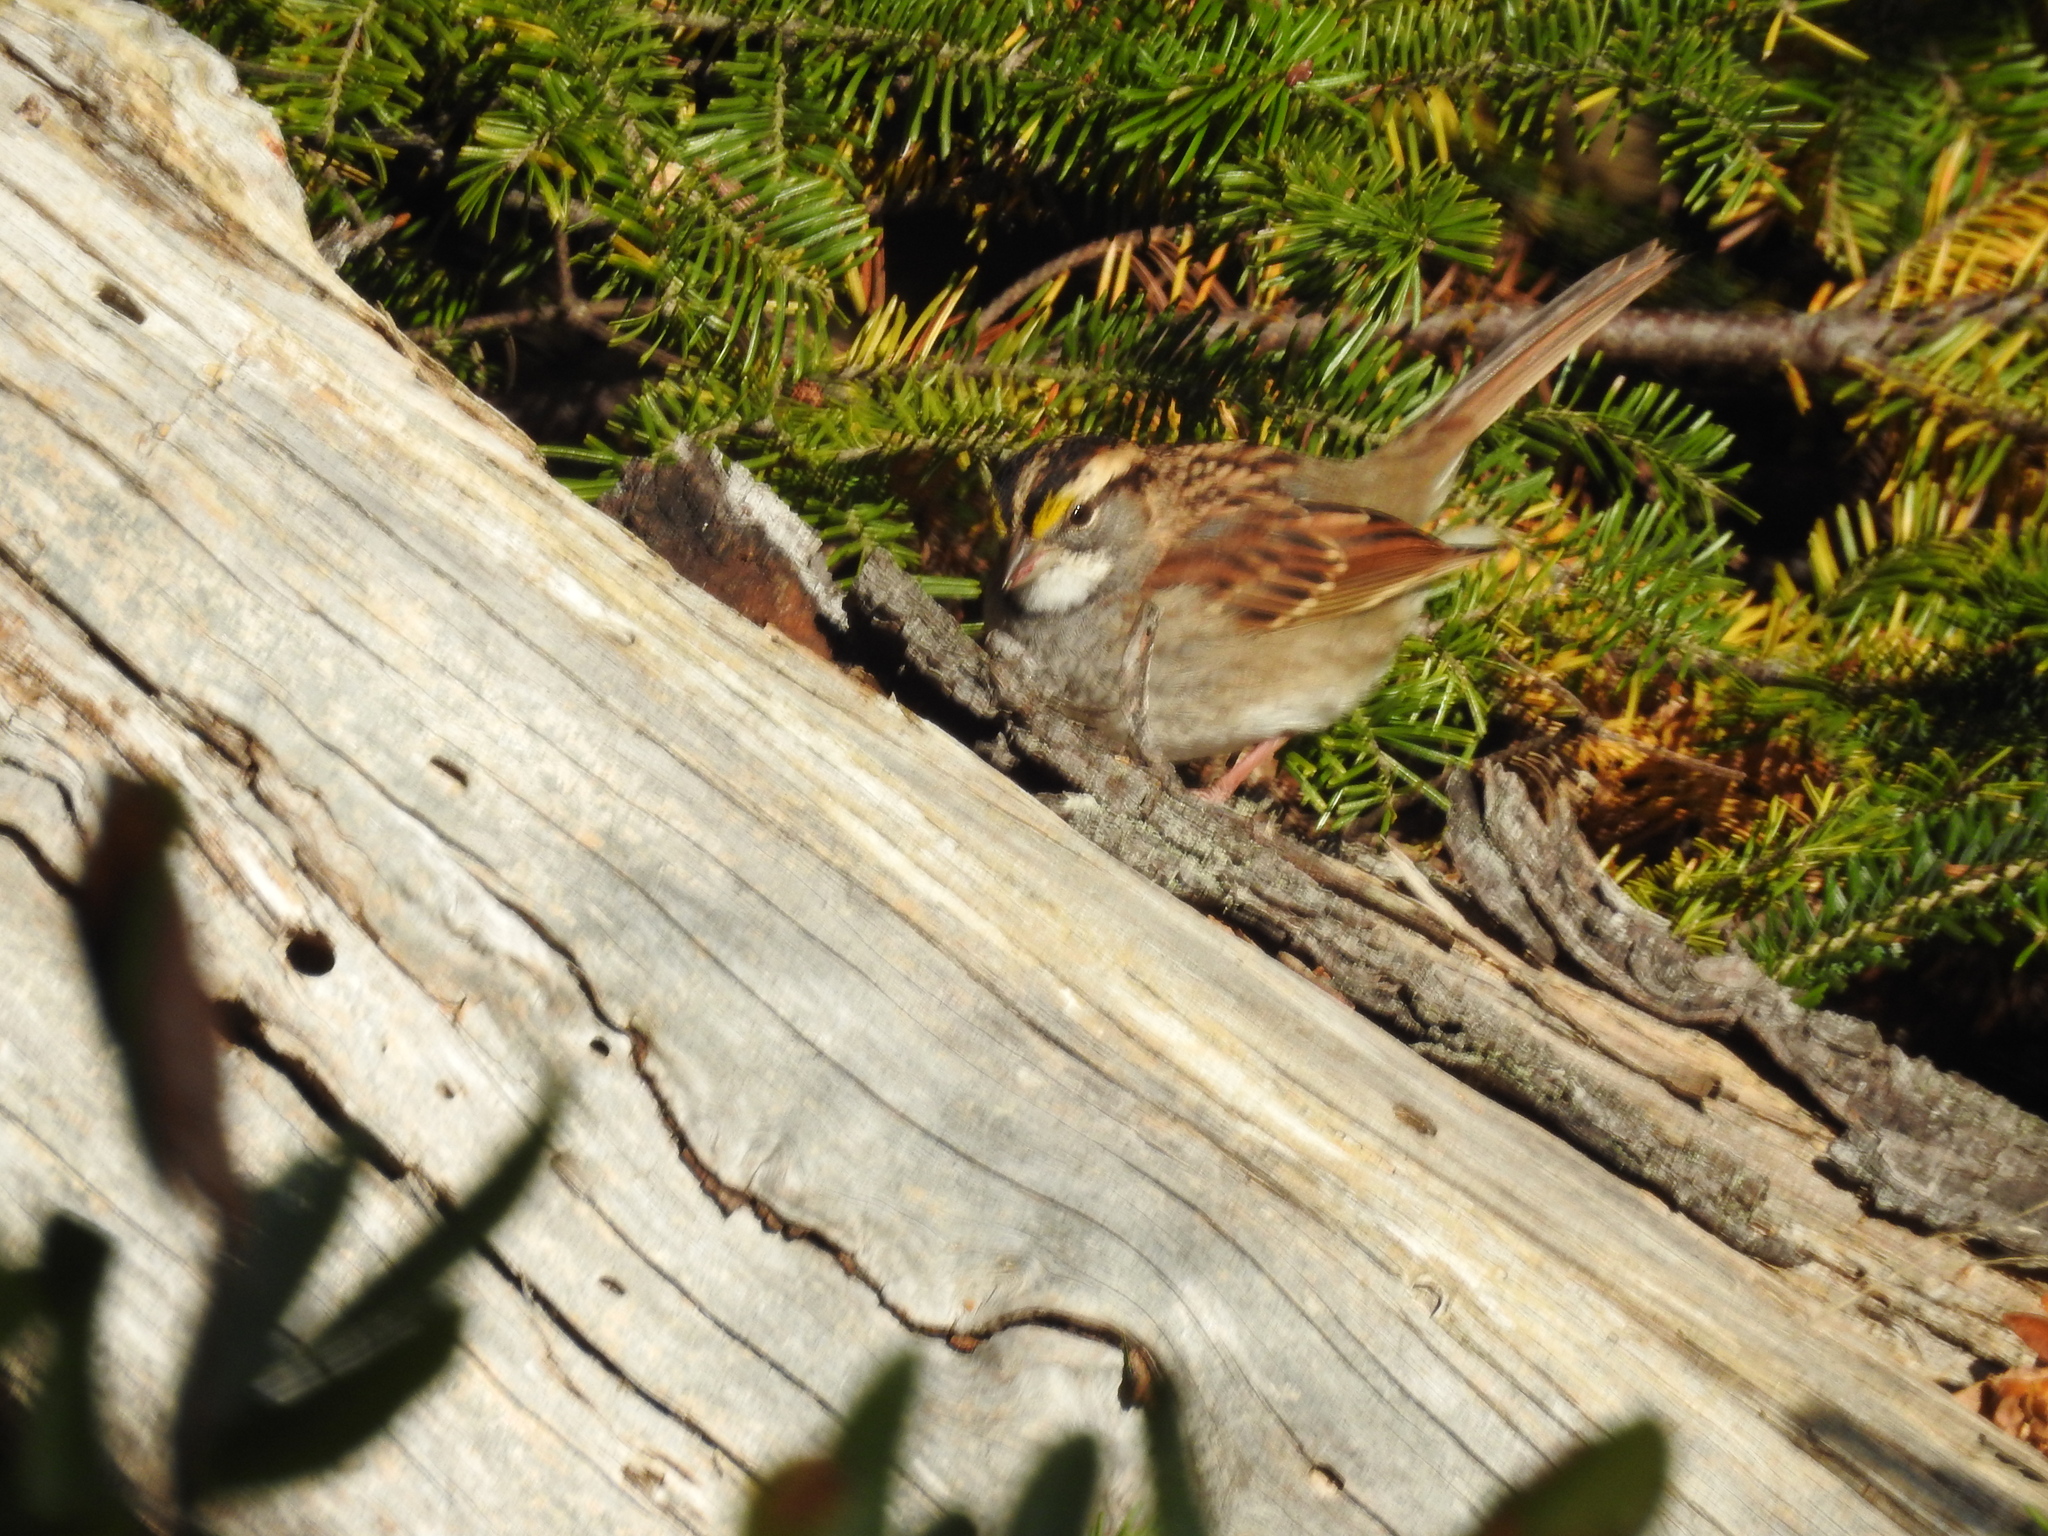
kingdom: Animalia
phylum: Chordata
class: Aves
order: Passeriformes
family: Passerellidae
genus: Zonotrichia
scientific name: Zonotrichia albicollis
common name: White-throated sparrow
